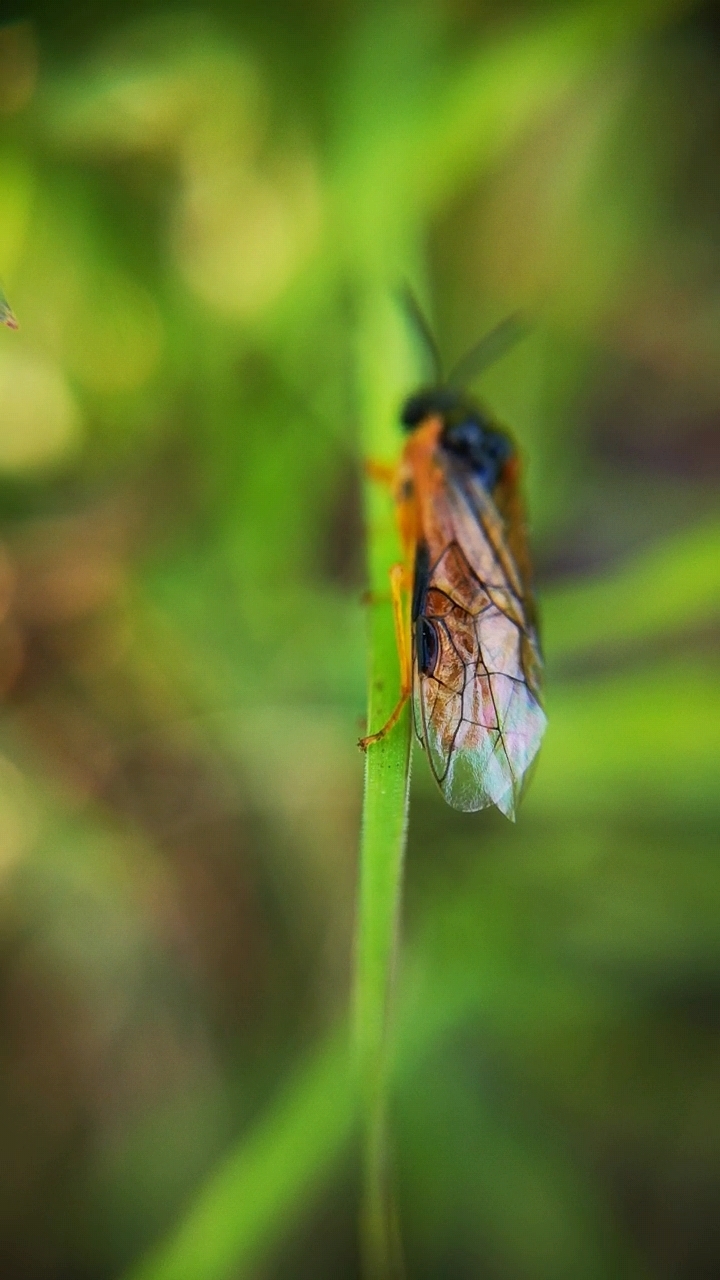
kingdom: Animalia
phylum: Arthropoda
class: Insecta
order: Hymenoptera
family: Tenthredinidae
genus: Selandria
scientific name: Selandria serva
